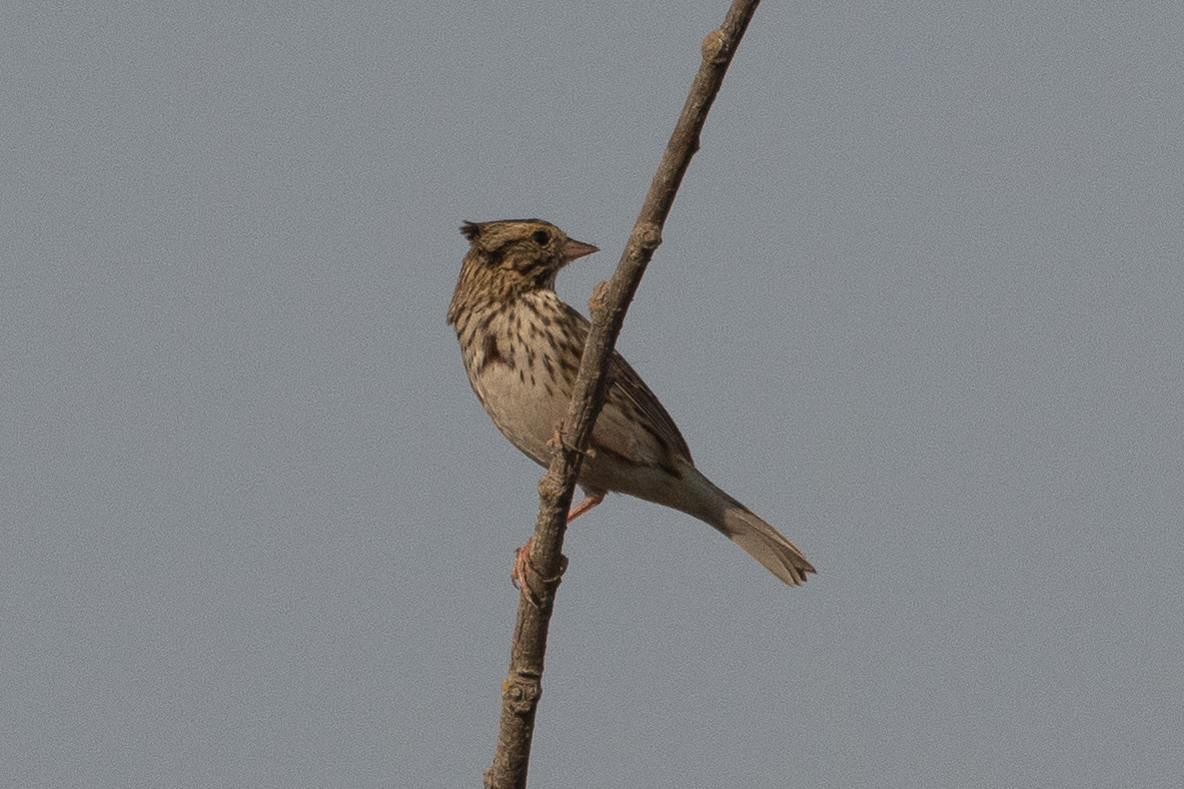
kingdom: Animalia
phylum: Chordata
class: Aves
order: Passeriformes
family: Passerellidae
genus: Passerculus
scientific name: Passerculus sandwichensis
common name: Savannah sparrow
